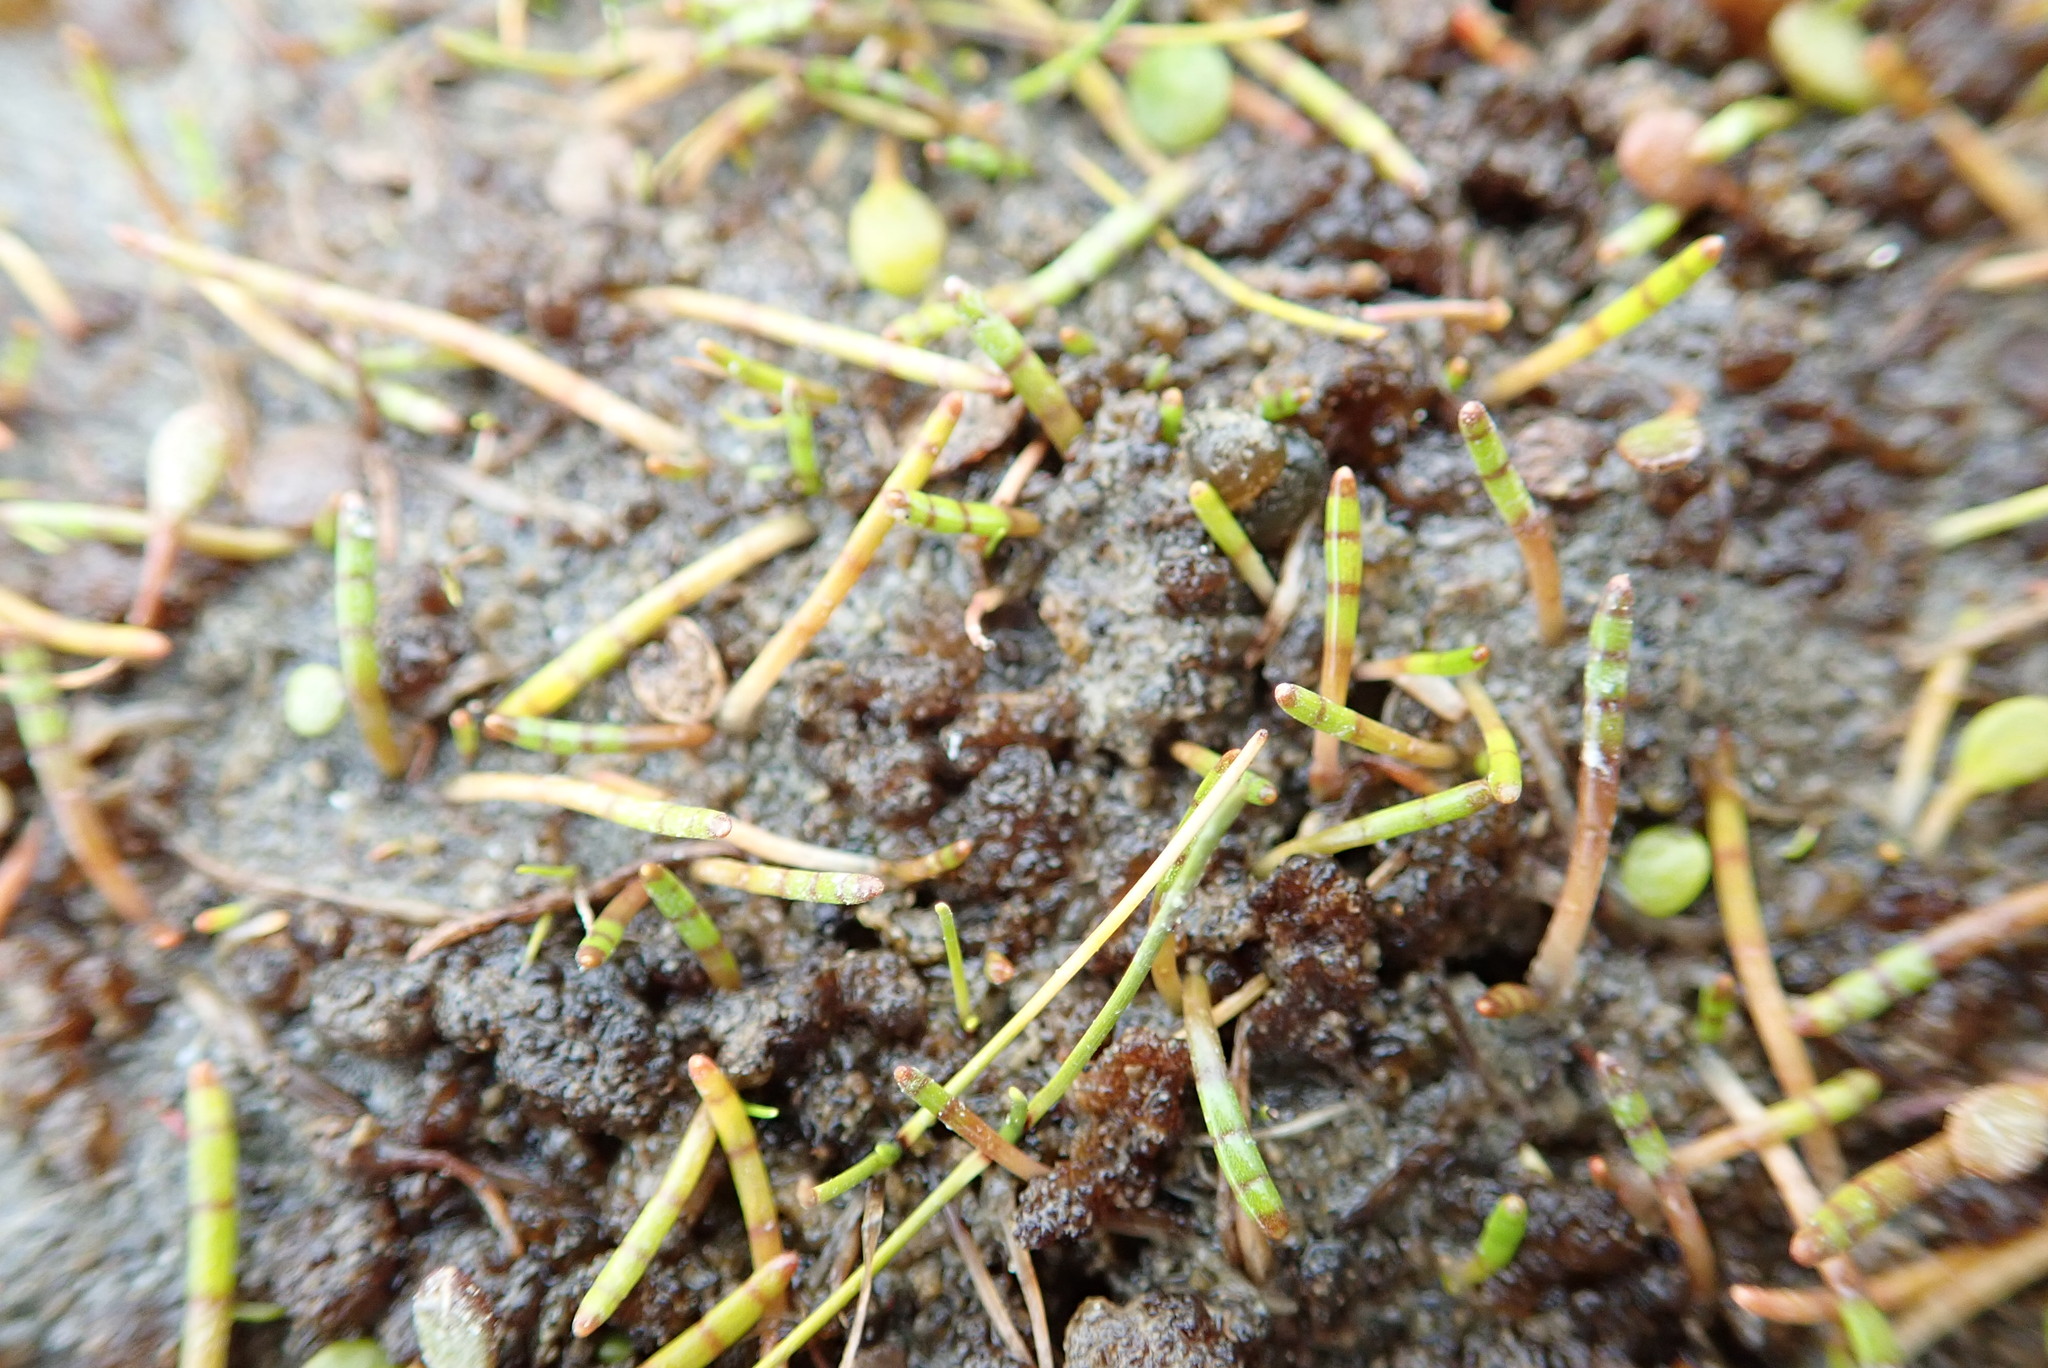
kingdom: Plantae
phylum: Tracheophyta
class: Magnoliopsida
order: Apiales
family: Apiaceae
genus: Lilaeopsis
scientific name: Lilaeopsis novae-zelandiae
